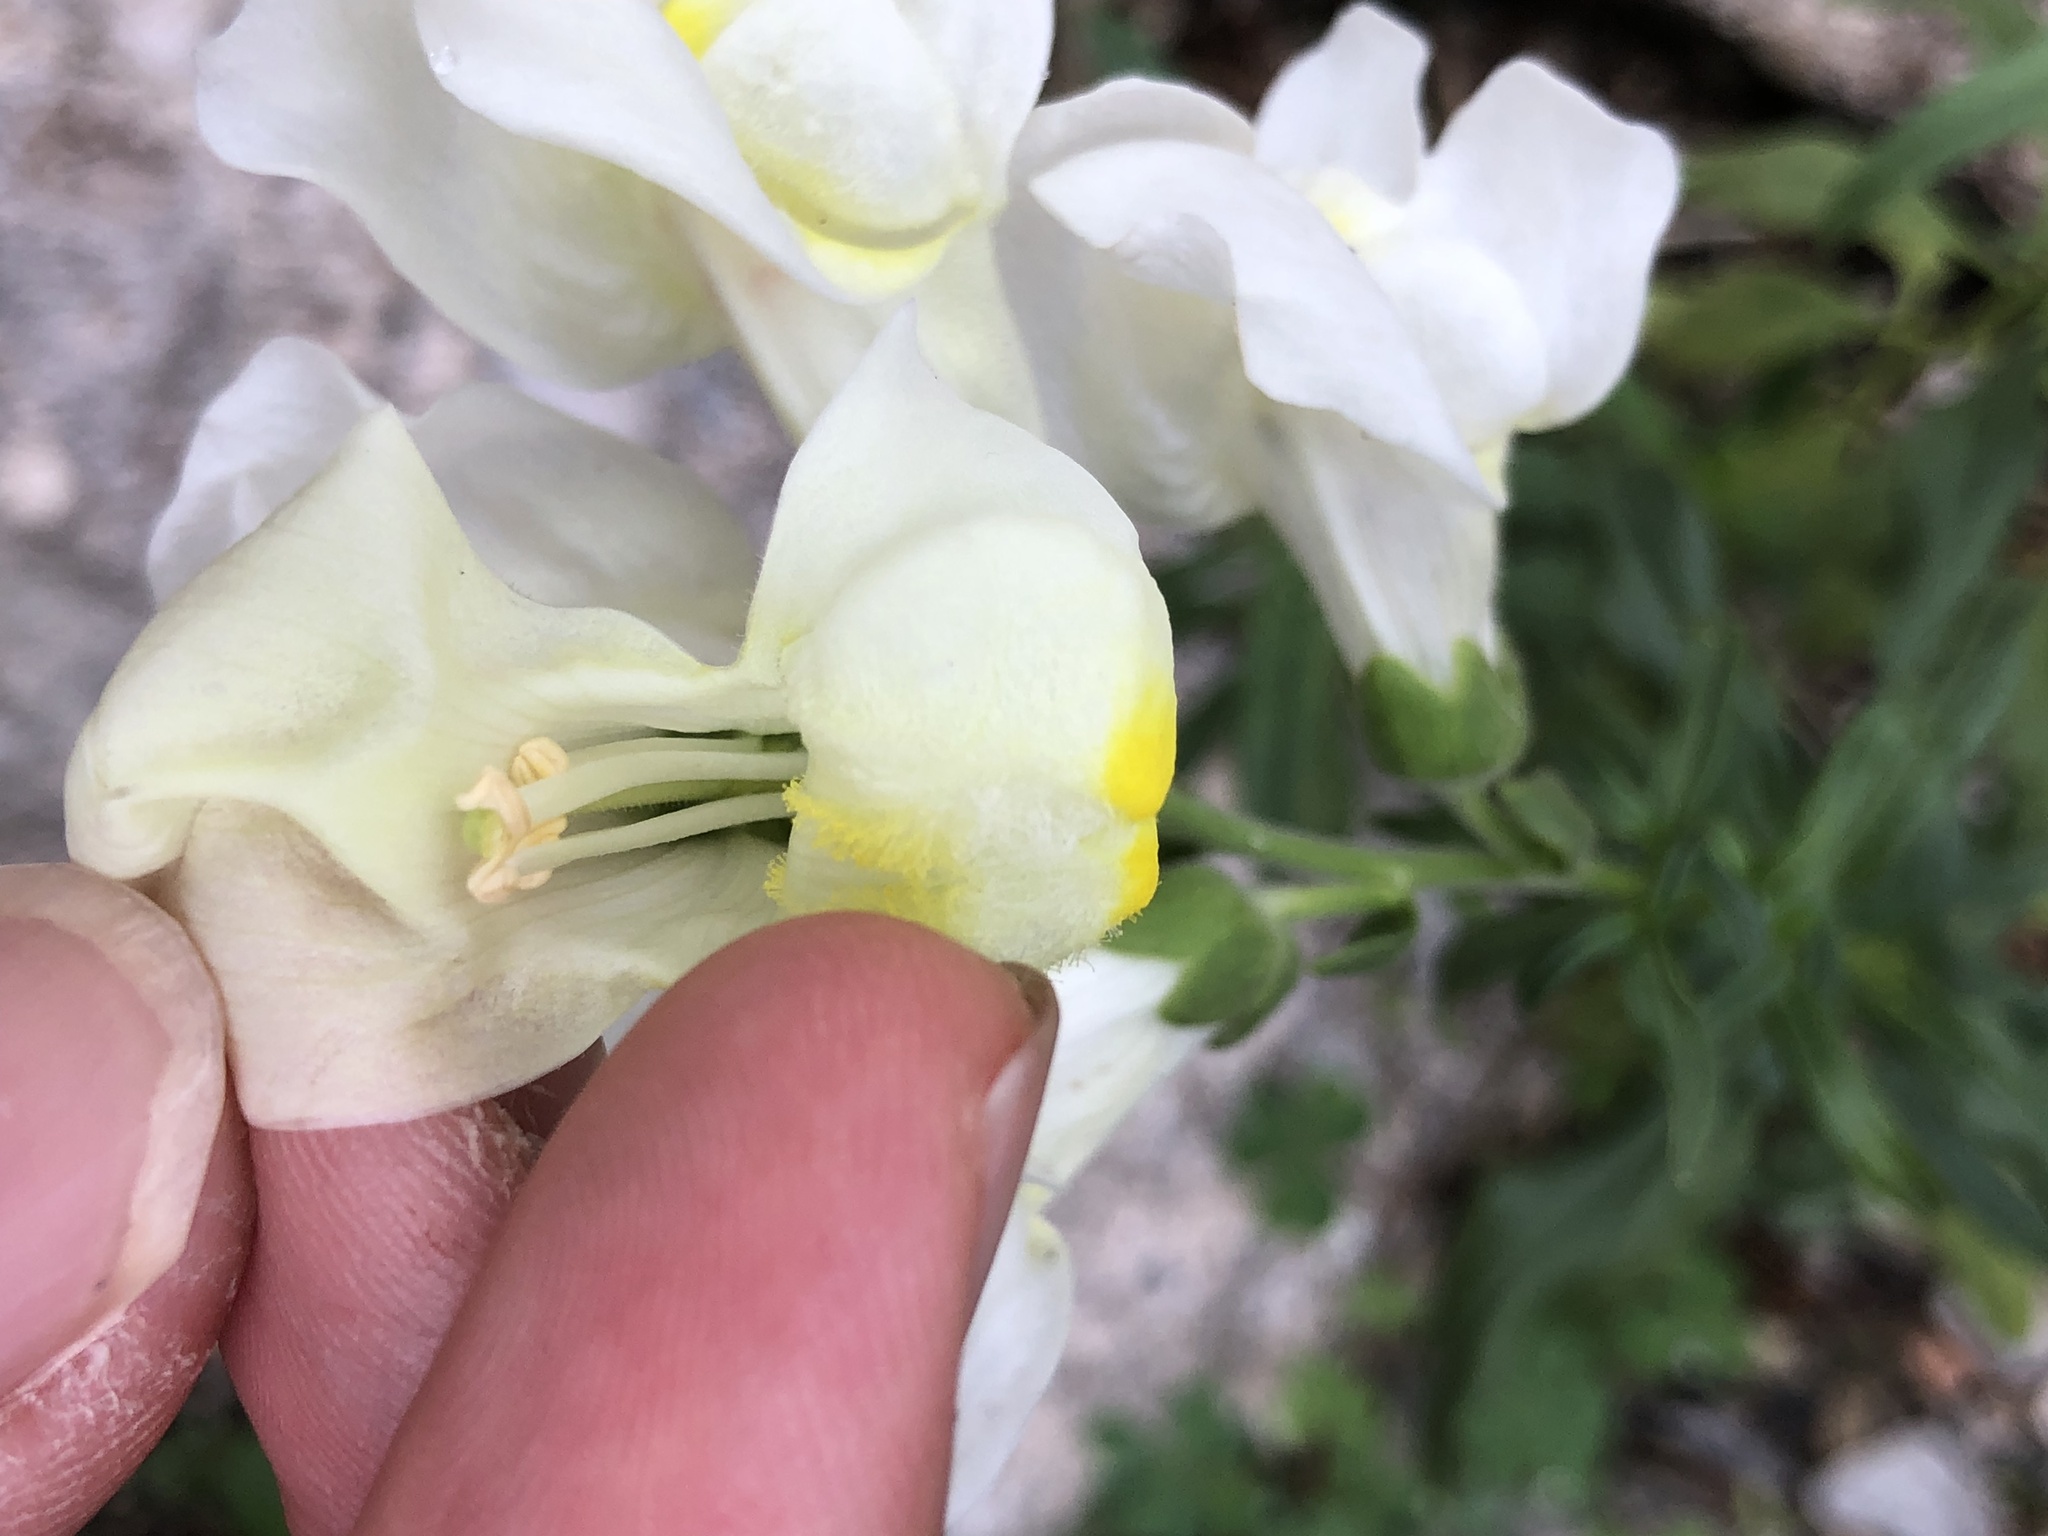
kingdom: Plantae
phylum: Tracheophyta
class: Magnoliopsida
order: Lamiales
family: Plantaginaceae
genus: Antirrhinum
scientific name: Antirrhinum majus
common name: Snapdragon
